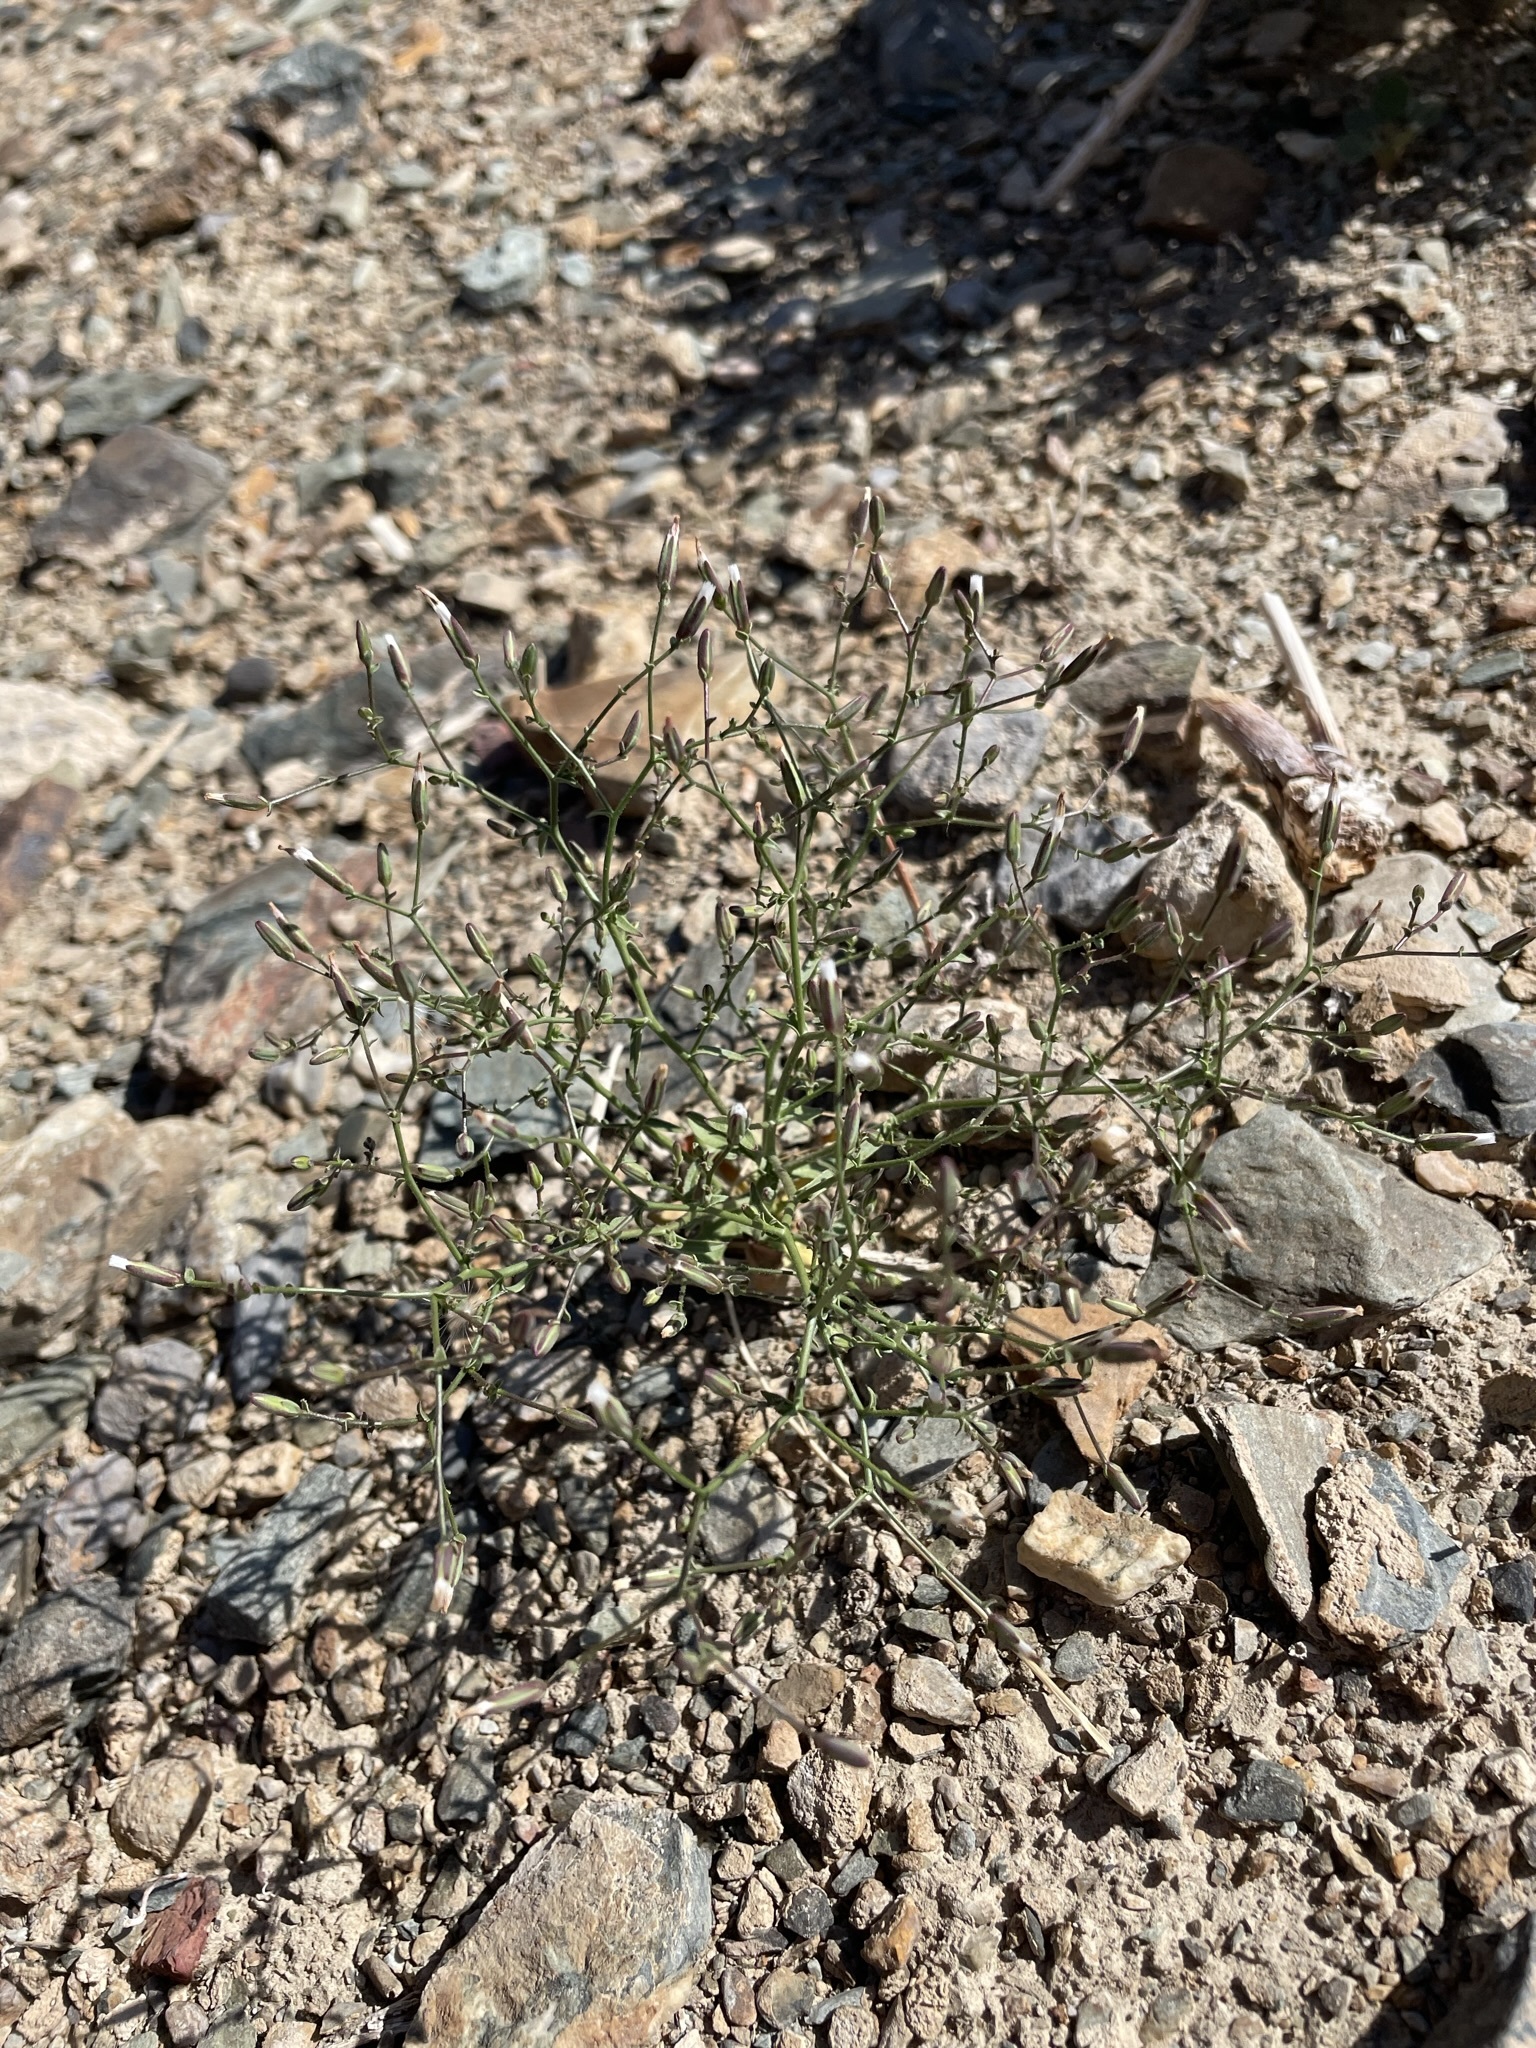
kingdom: Plantae
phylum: Tracheophyta
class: Magnoliopsida
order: Asterales
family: Asteraceae
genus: Lygodesmia
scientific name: Lygodesmia exigua
